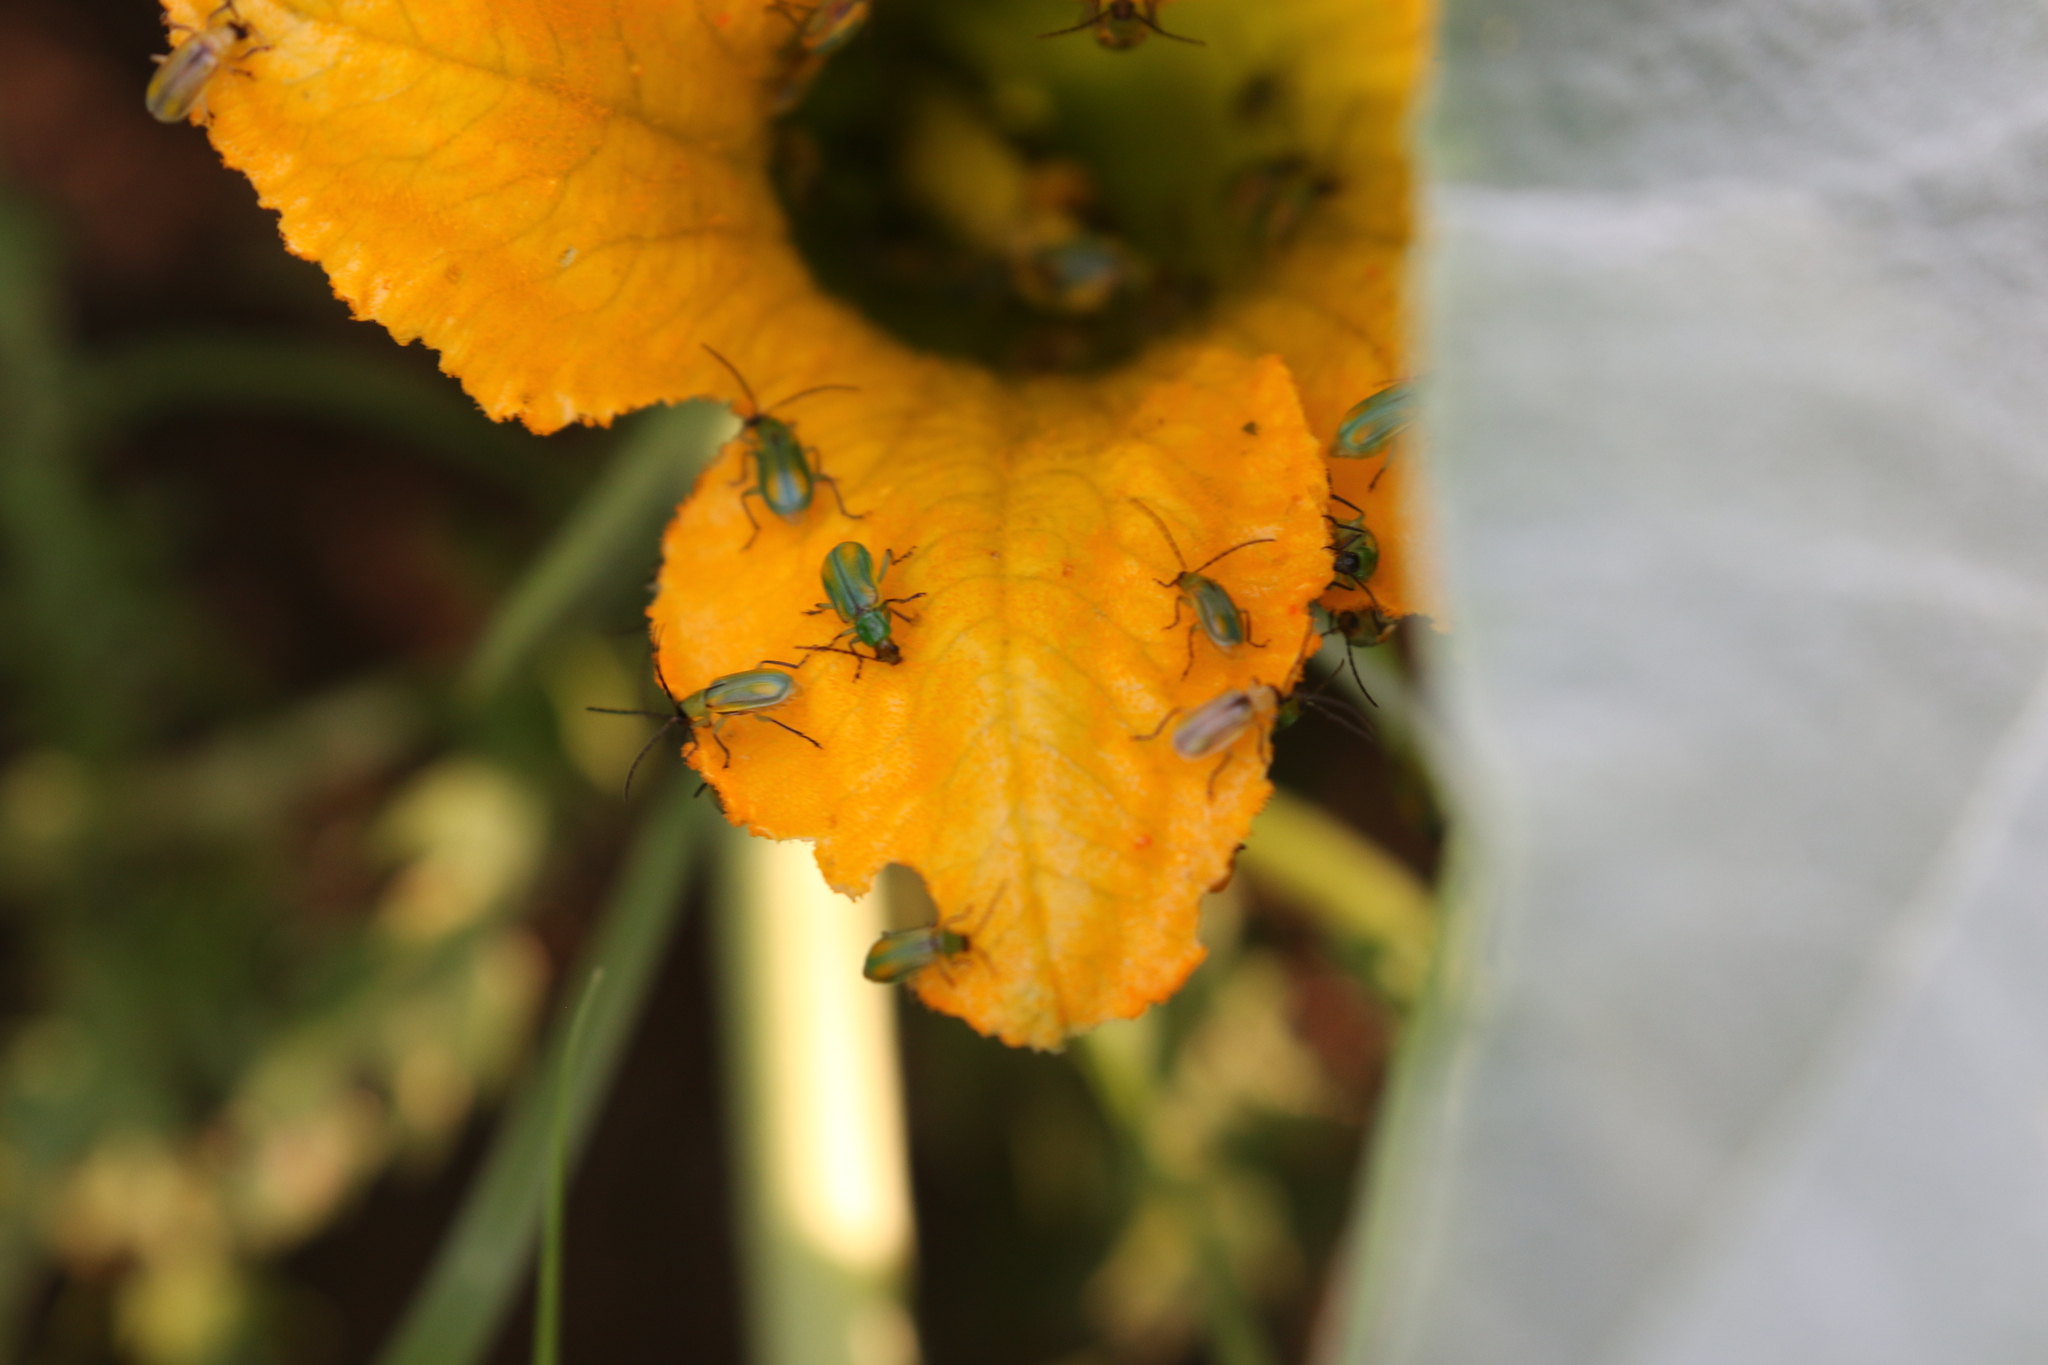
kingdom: Animalia
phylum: Arthropoda
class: Insecta
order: Coleoptera
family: Chrysomelidae
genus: Diabrotica
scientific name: Diabrotica longicornis
